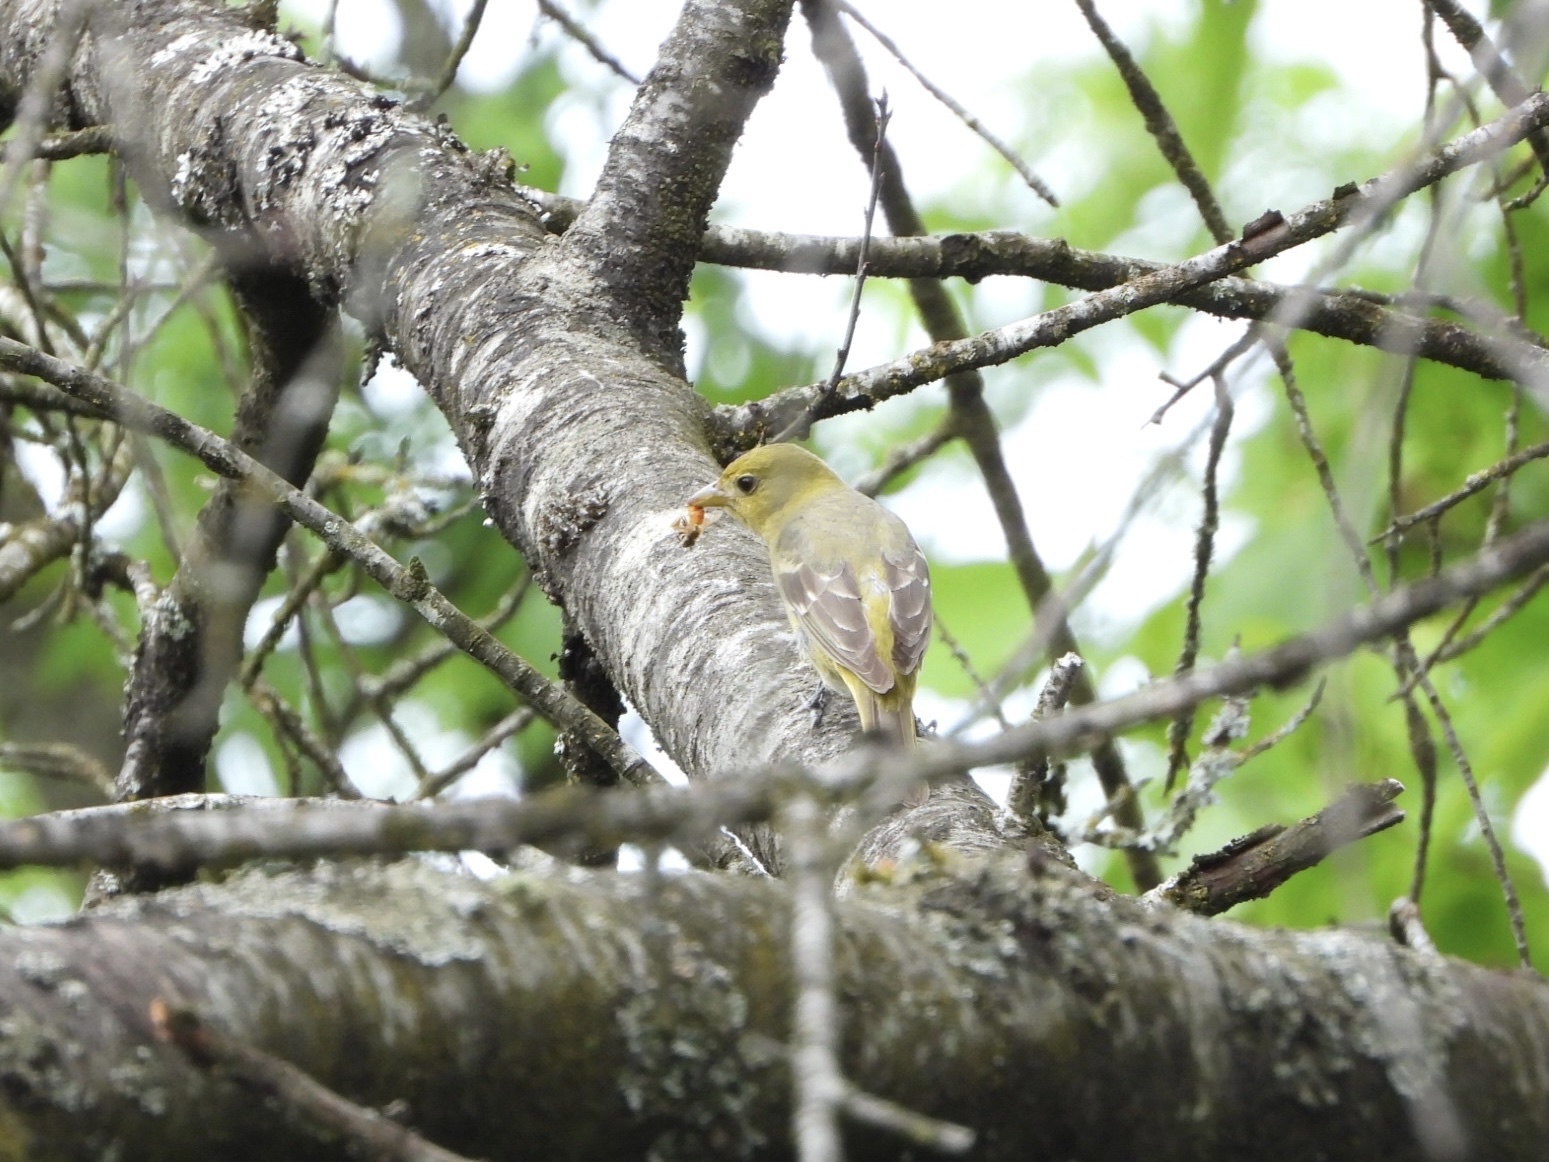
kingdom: Animalia
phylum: Chordata
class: Aves
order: Passeriformes
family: Cardinalidae
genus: Piranga
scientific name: Piranga ludoviciana
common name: Western tanager
